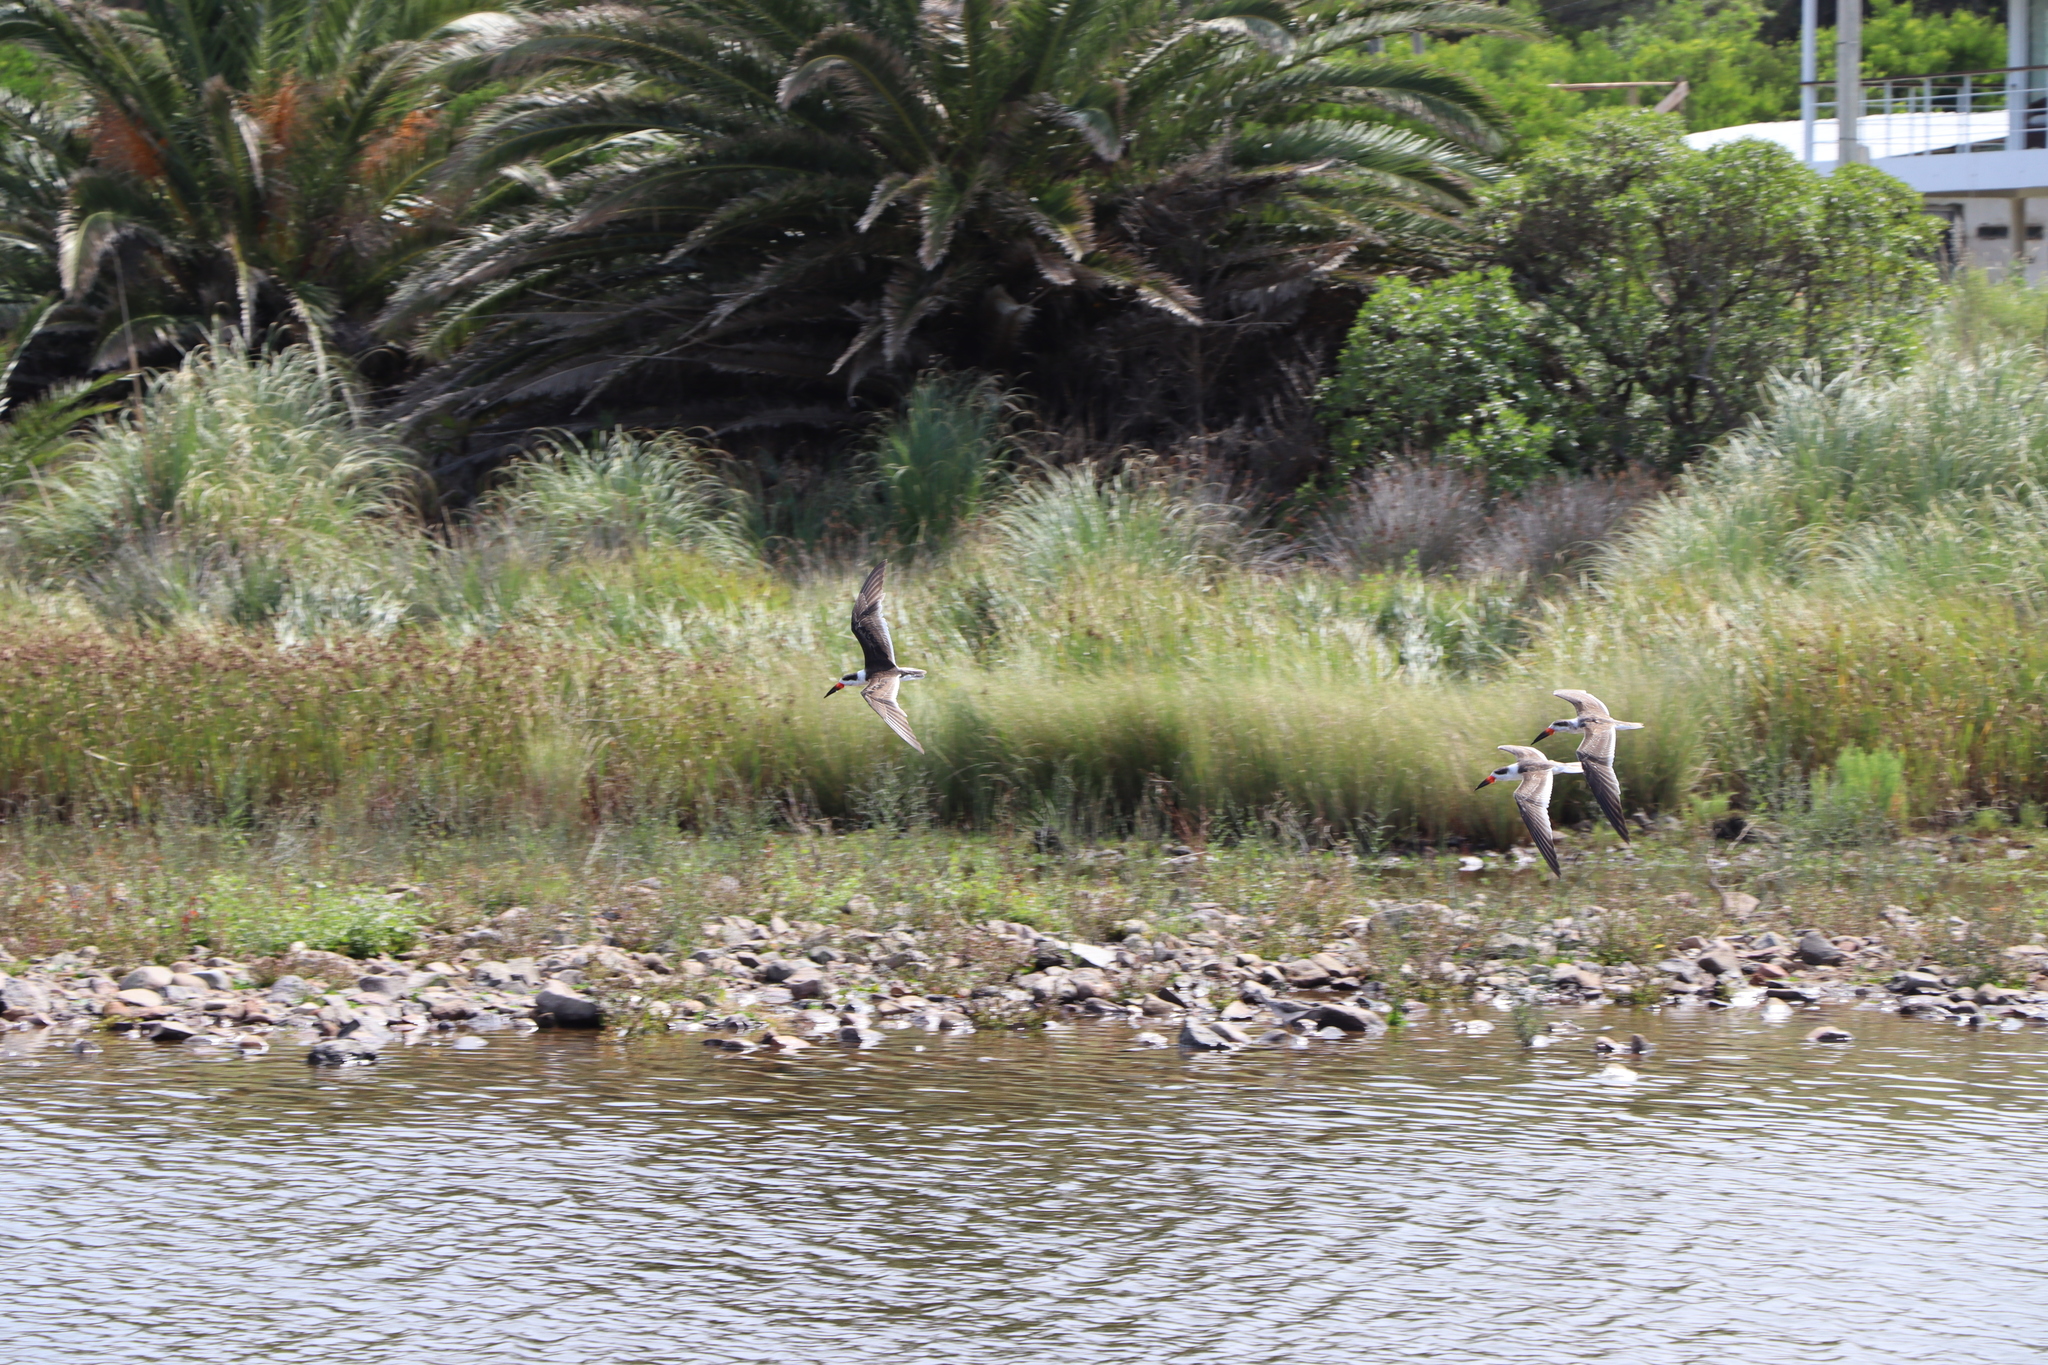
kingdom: Animalia
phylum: Chordata
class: Aves
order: Charadriiformes
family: Laridae
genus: Rynchops
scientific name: Rynchops niger
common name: Black skimmer
